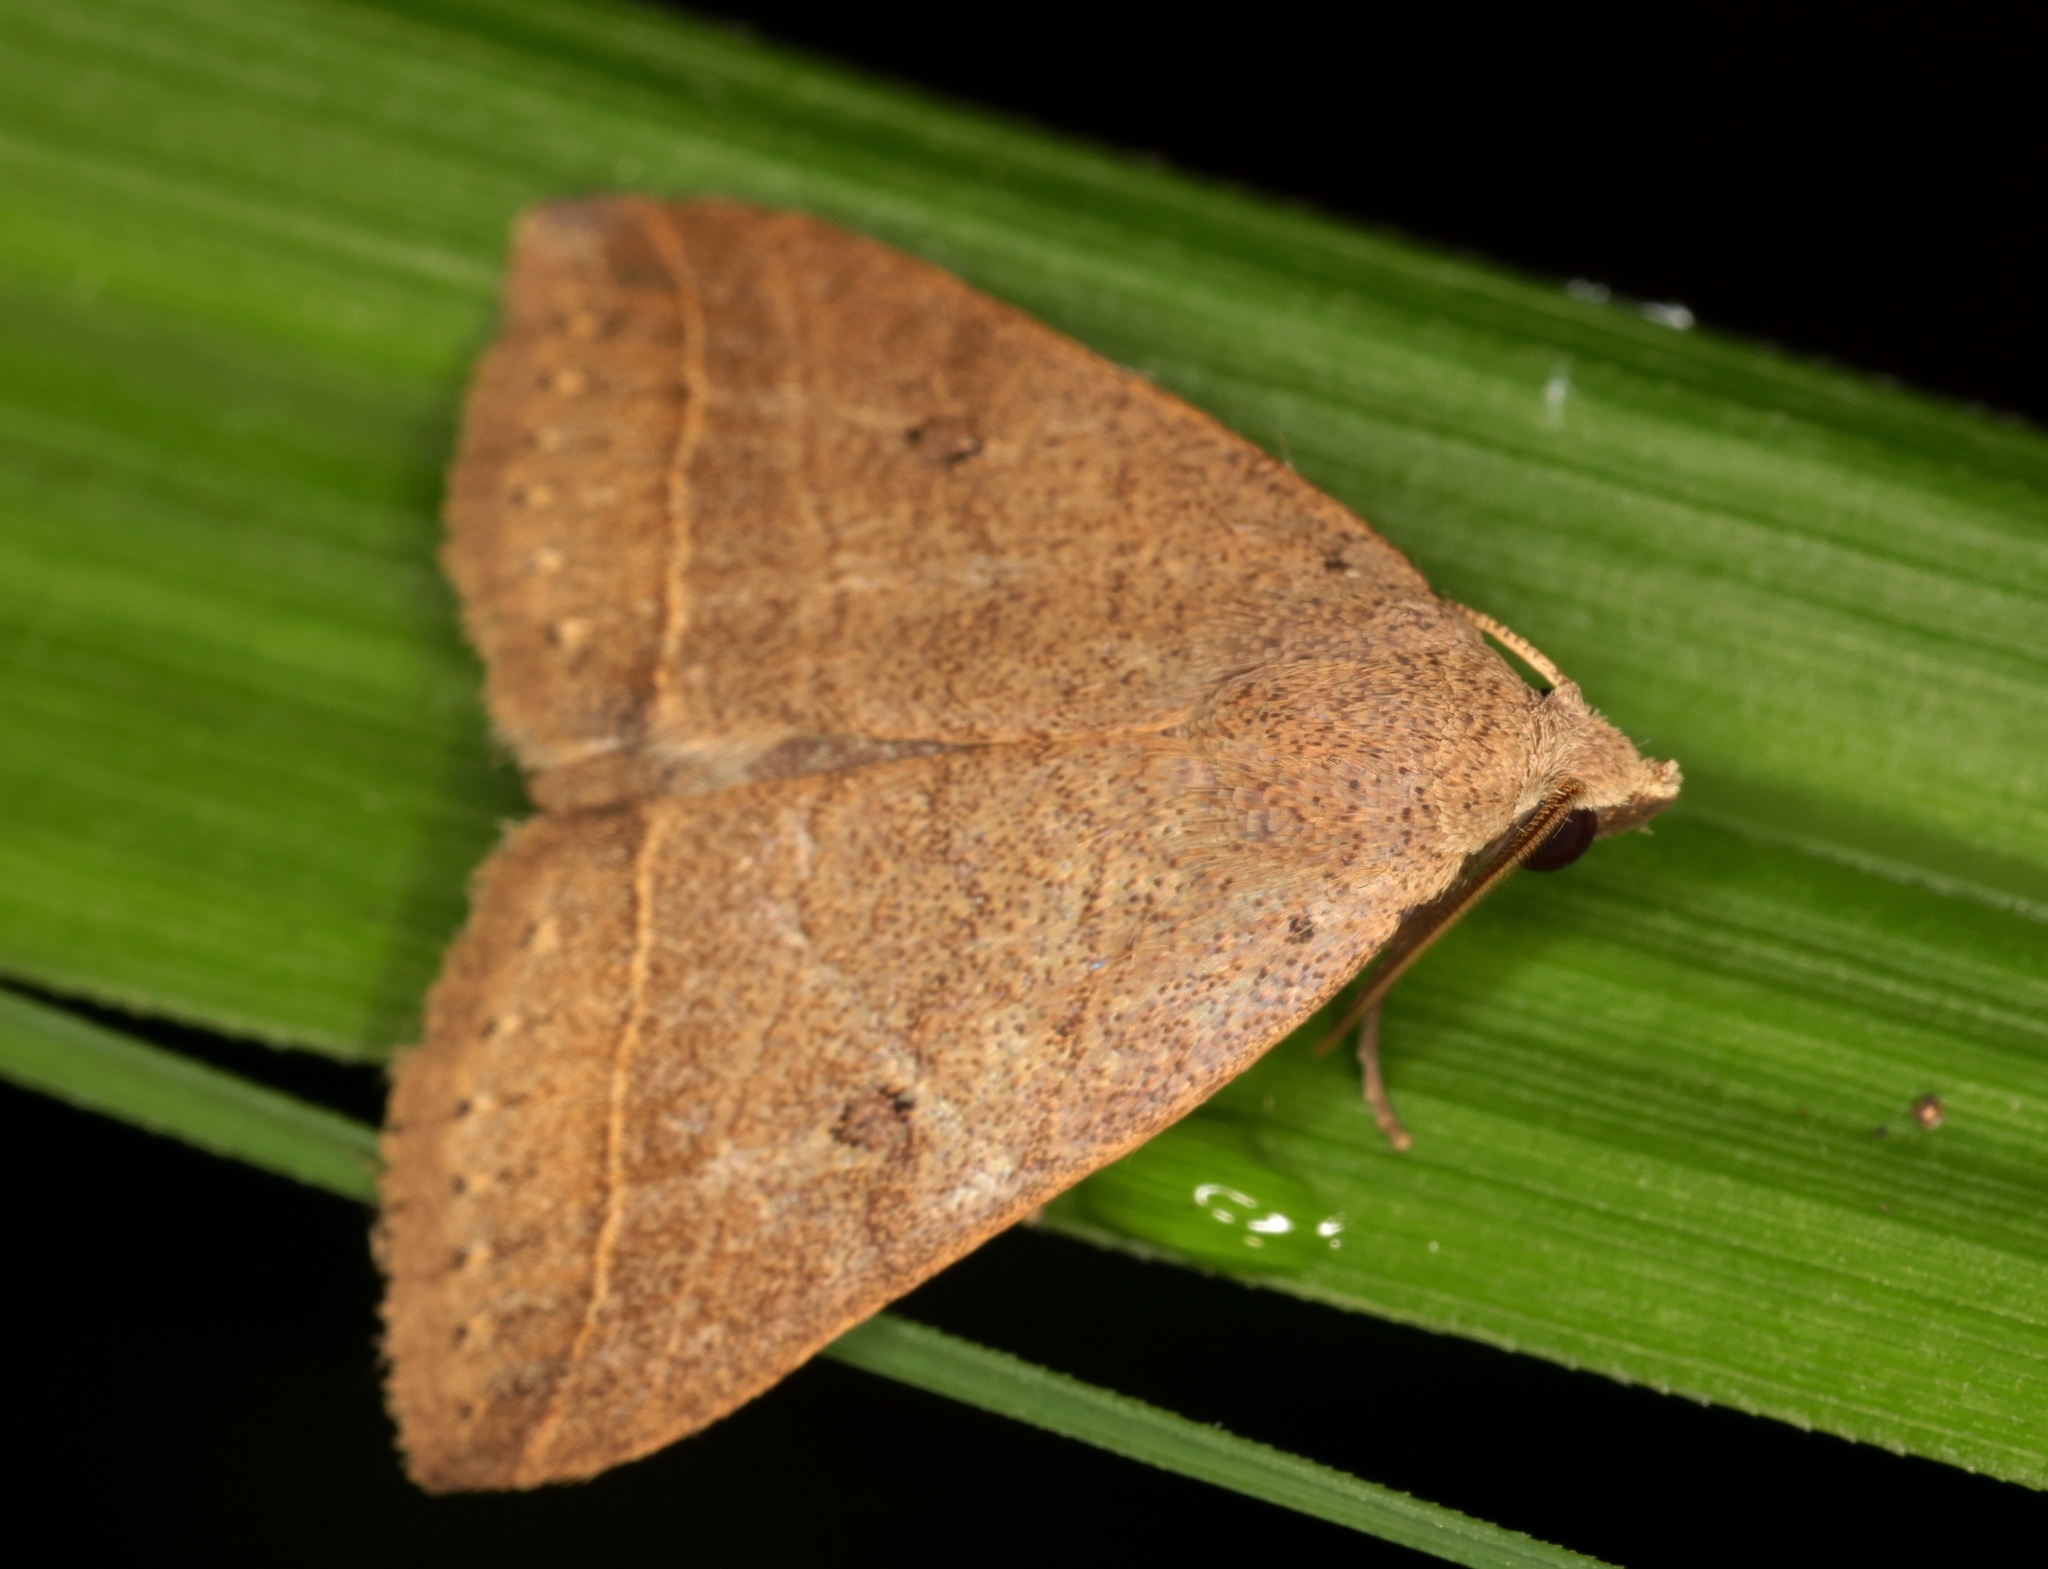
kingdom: Animalia
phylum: Arthropoda
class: Insecta
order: Lepidoptera
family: Erebidae
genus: Bocula
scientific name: Bocula caradrinoides
